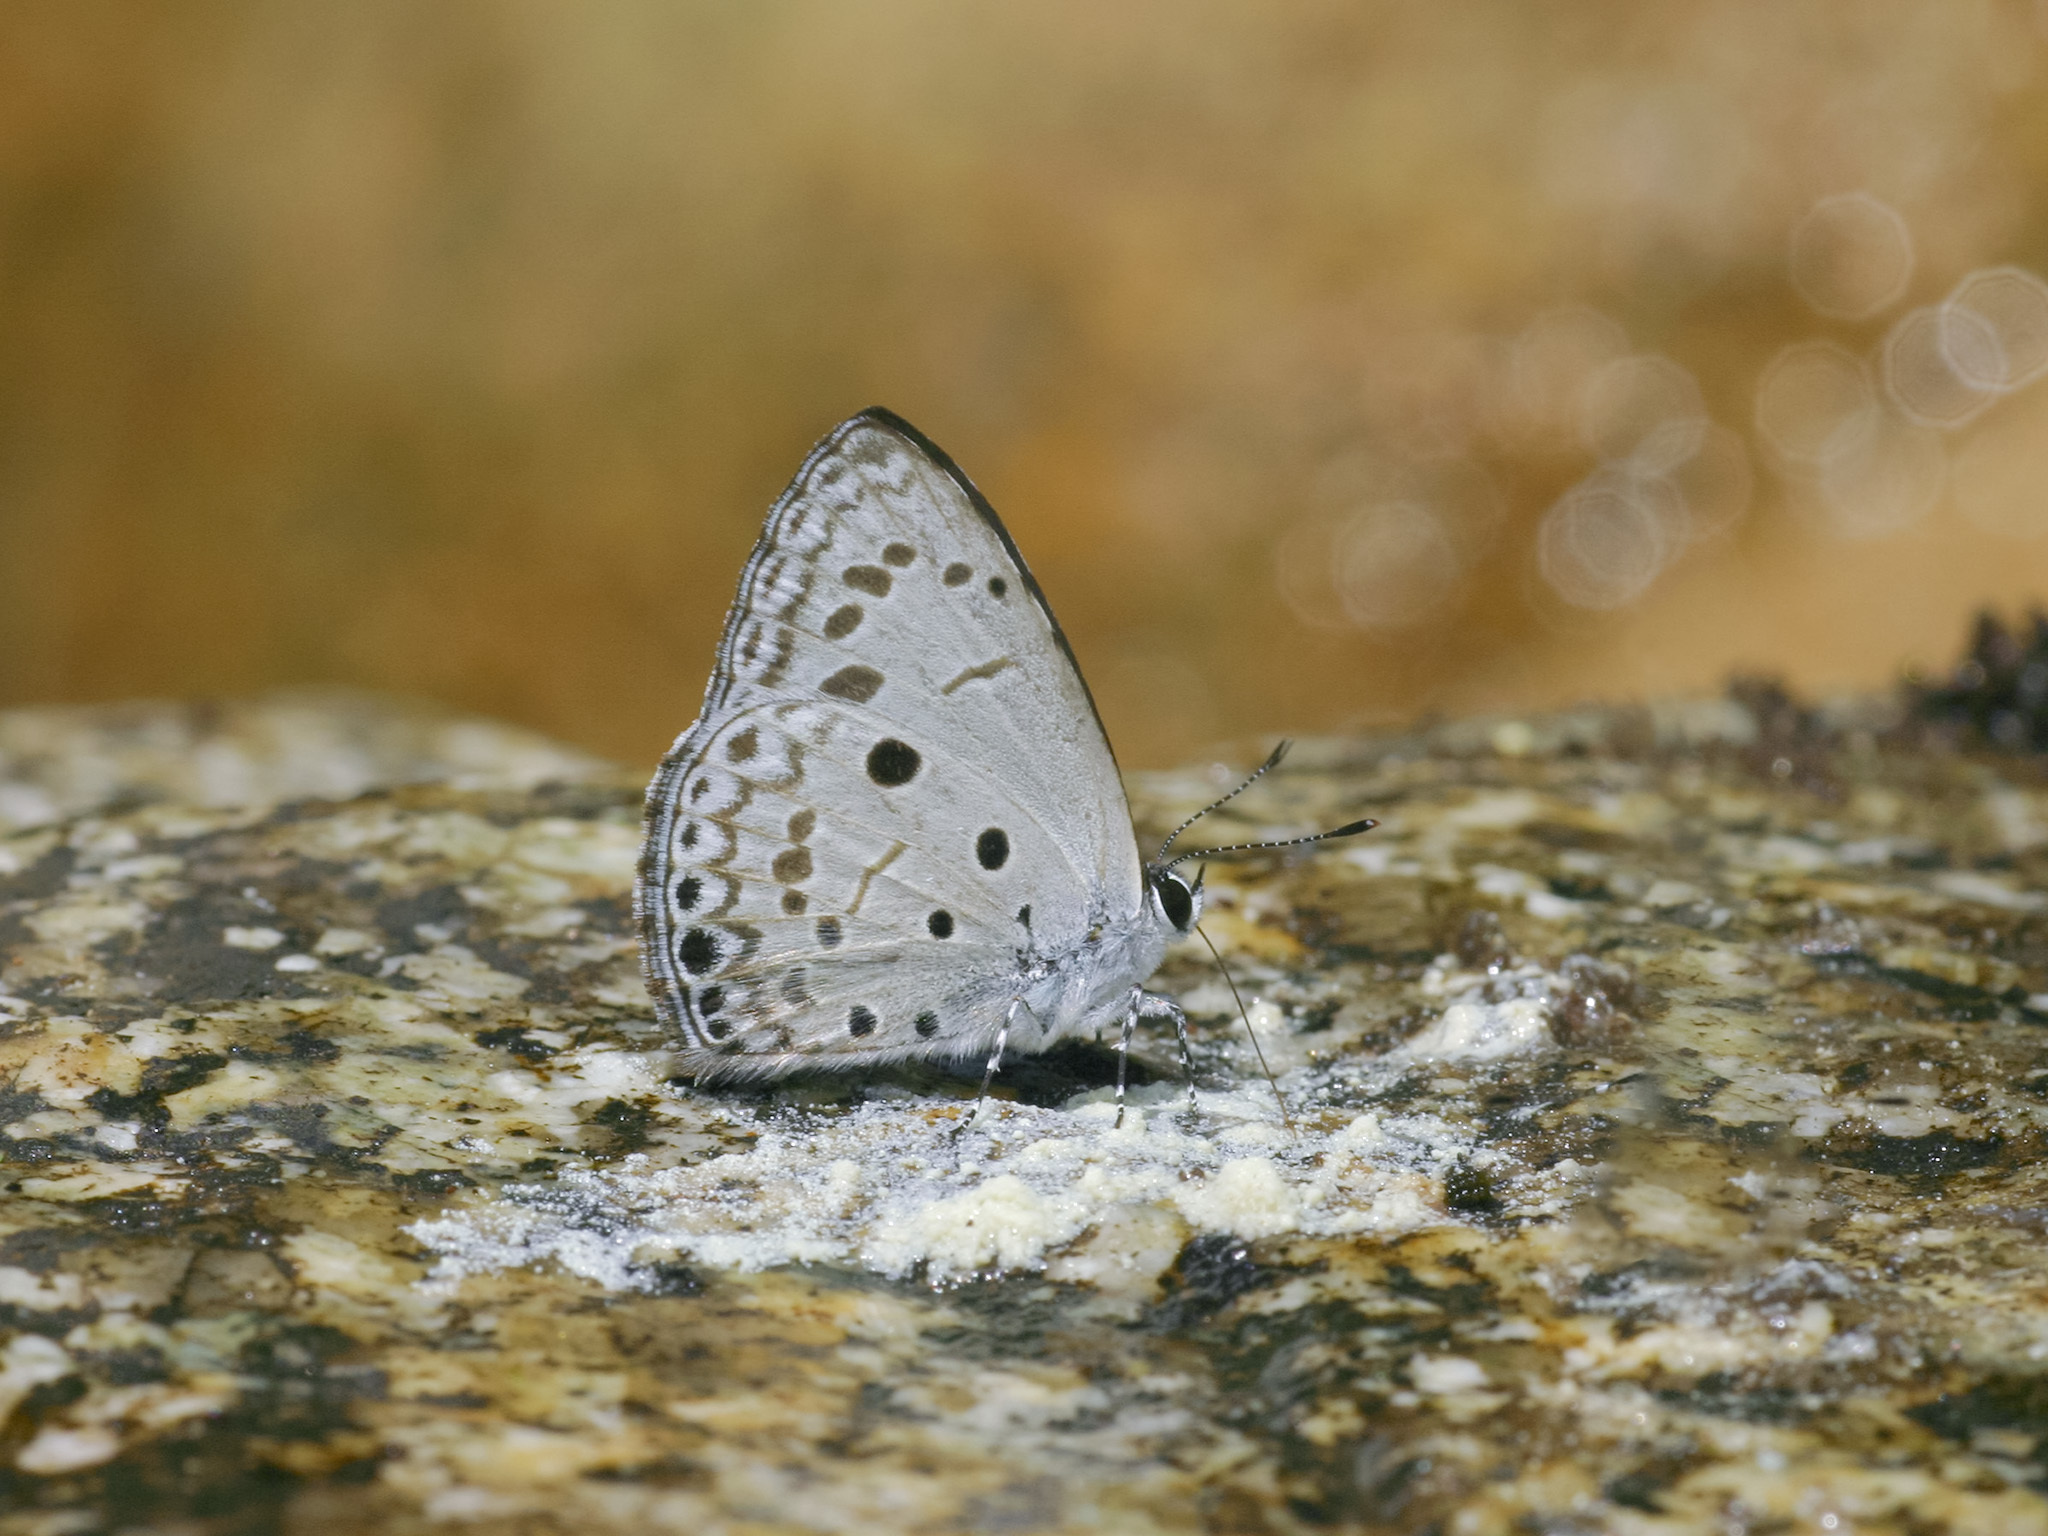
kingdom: Animalia
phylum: Arthropoda
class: Insecta
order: Lepidoptera
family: Lycaenidae
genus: Acytolepis
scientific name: Acytolepis puspa
